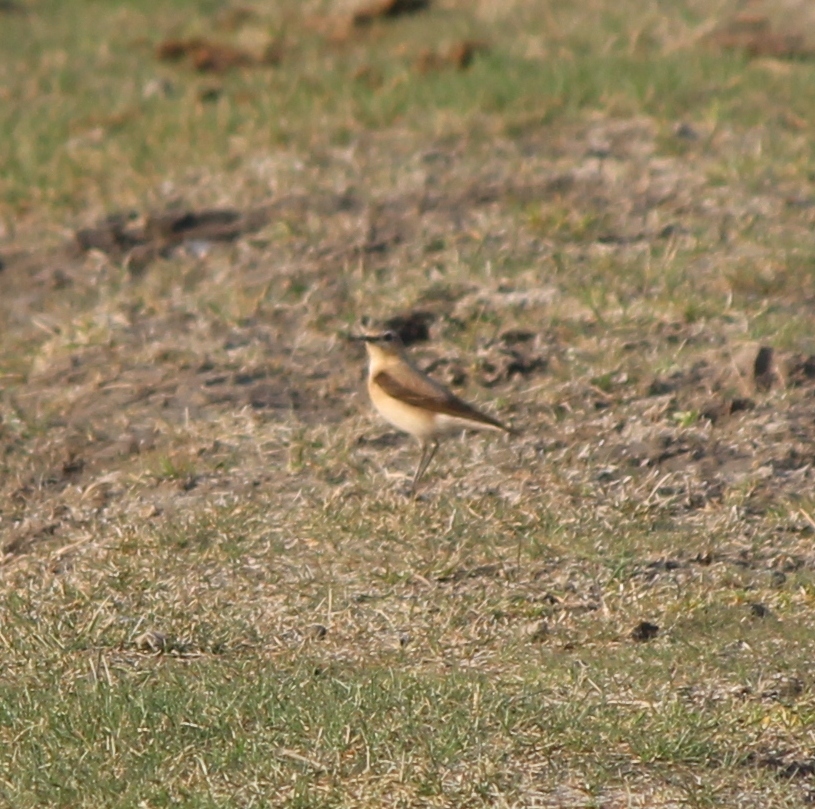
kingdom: Animalia
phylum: Chordata
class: Aves
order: Passeriformes
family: Muscicapidae
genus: Oenanthe
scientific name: Oenanthe oenanthe
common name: Northern wheatear
